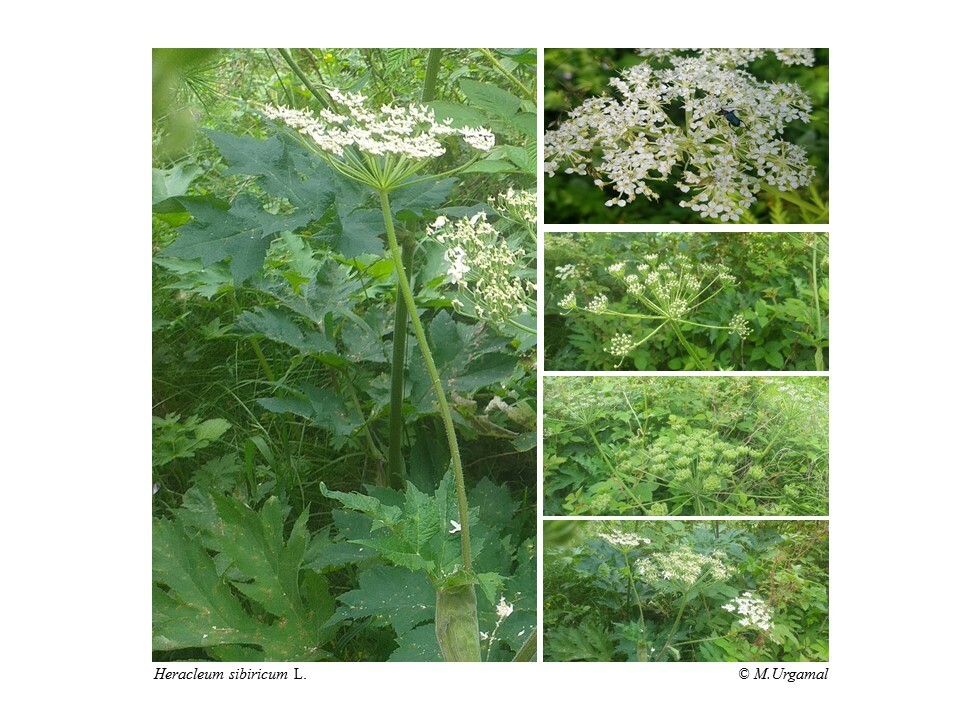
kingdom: Plantae
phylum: Tracheophyta
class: Magnoliopsida
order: Apiales
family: Apiaceae
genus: Heracleum
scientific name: Heracleum dissectum
